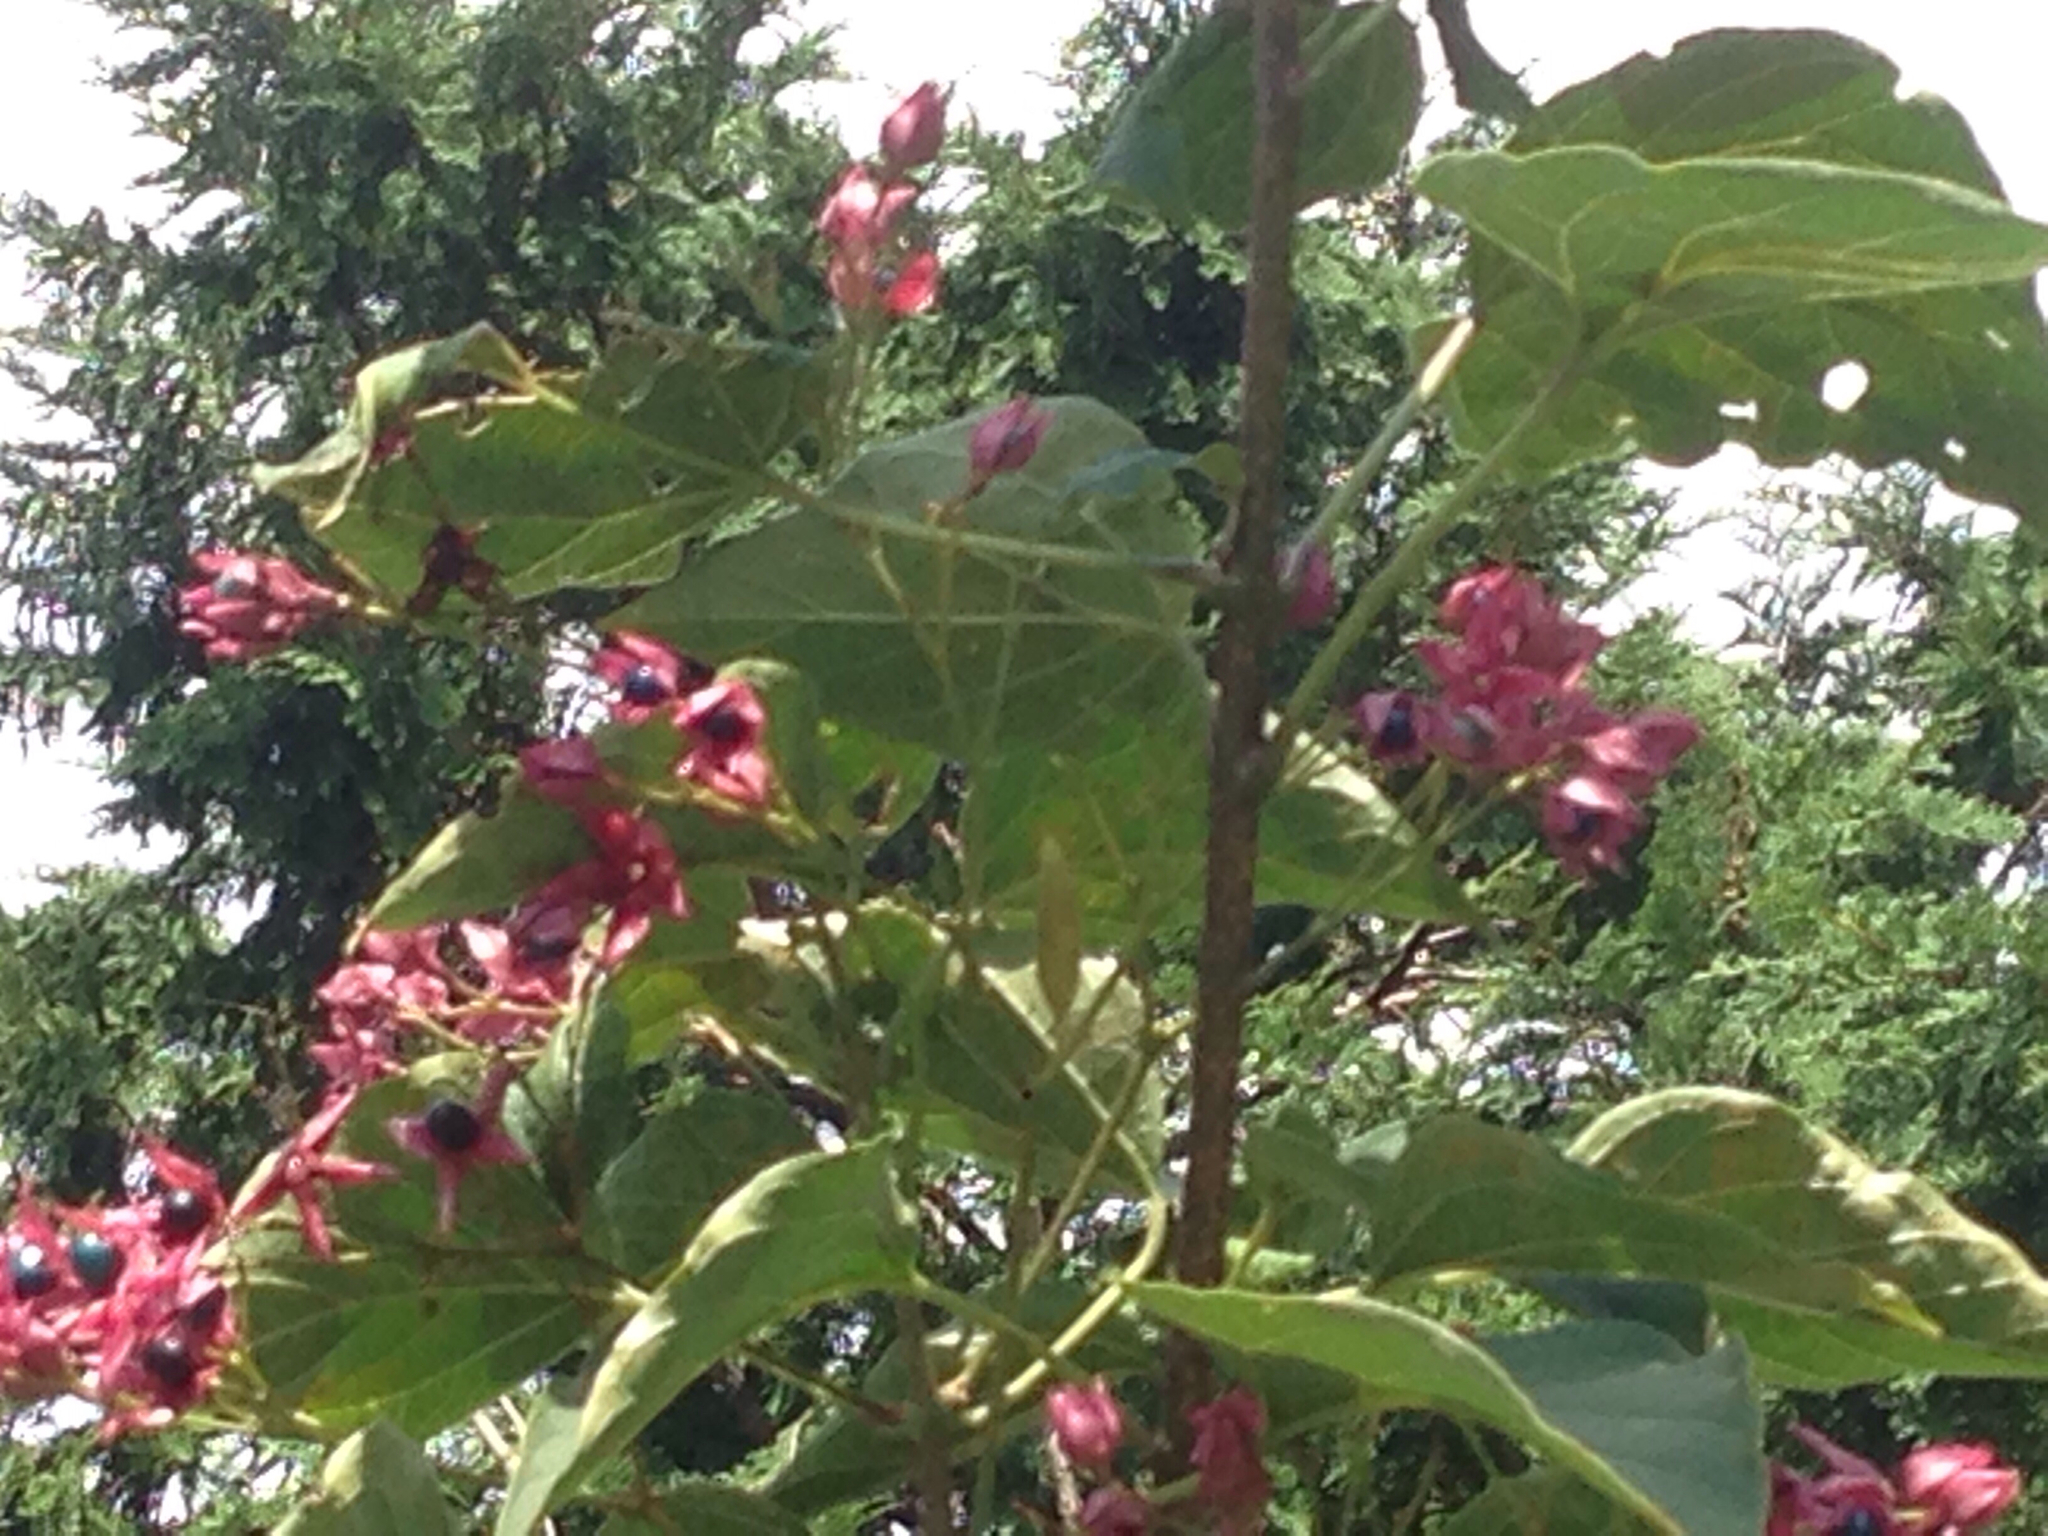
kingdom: Plantae
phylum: Tracheophyta
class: Magnoliopsida
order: Lamiales
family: Lamiaceae
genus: Clerodendrum
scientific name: Clerodendrum trichotomum
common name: Harlequin glorybower
